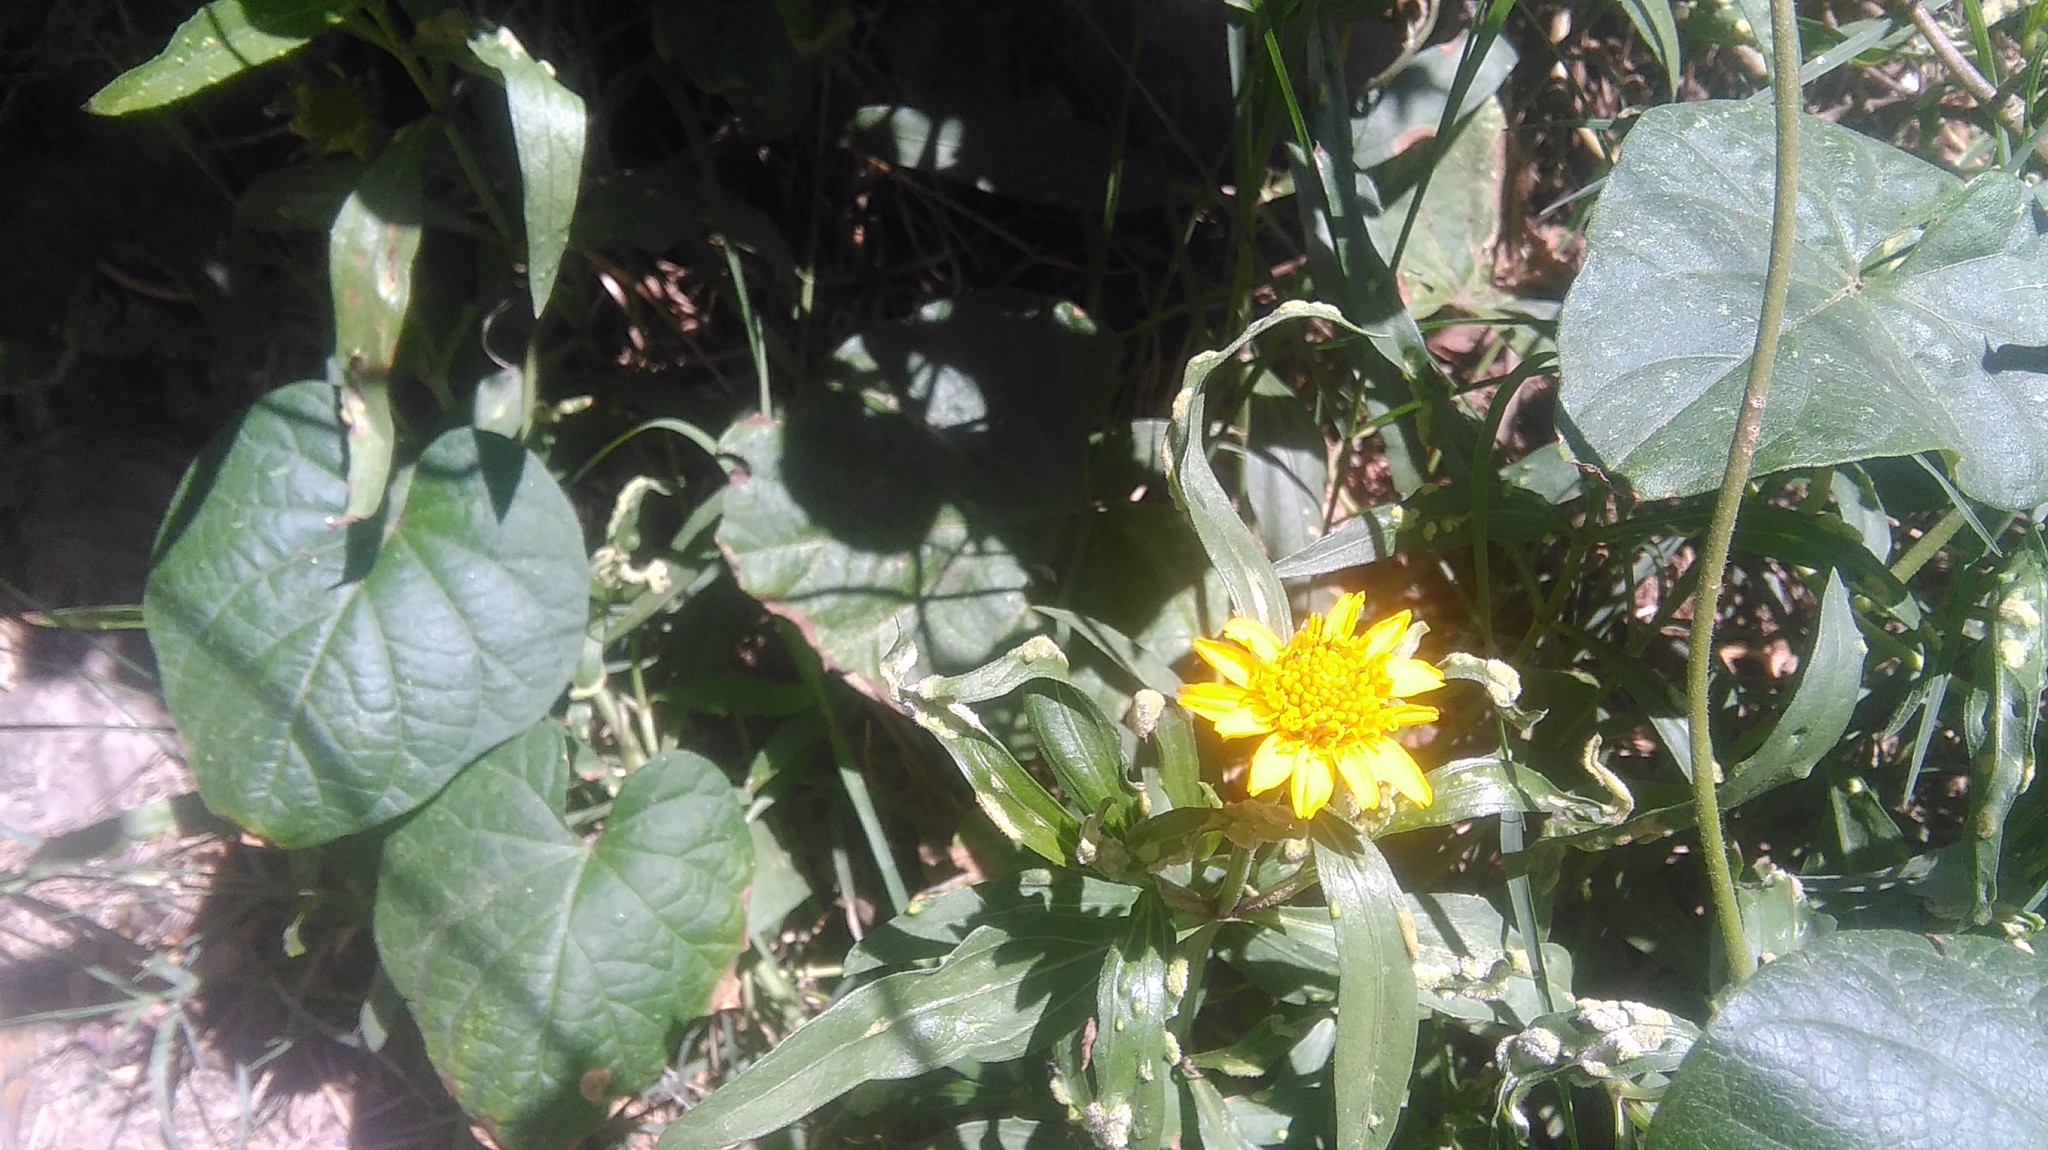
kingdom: Plantae
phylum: Tracheophyta
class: Magnoliopsida
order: Asterales
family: Asteraceae
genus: Pascalia
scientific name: Pascalia glauca
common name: Beach creeping oxeye
